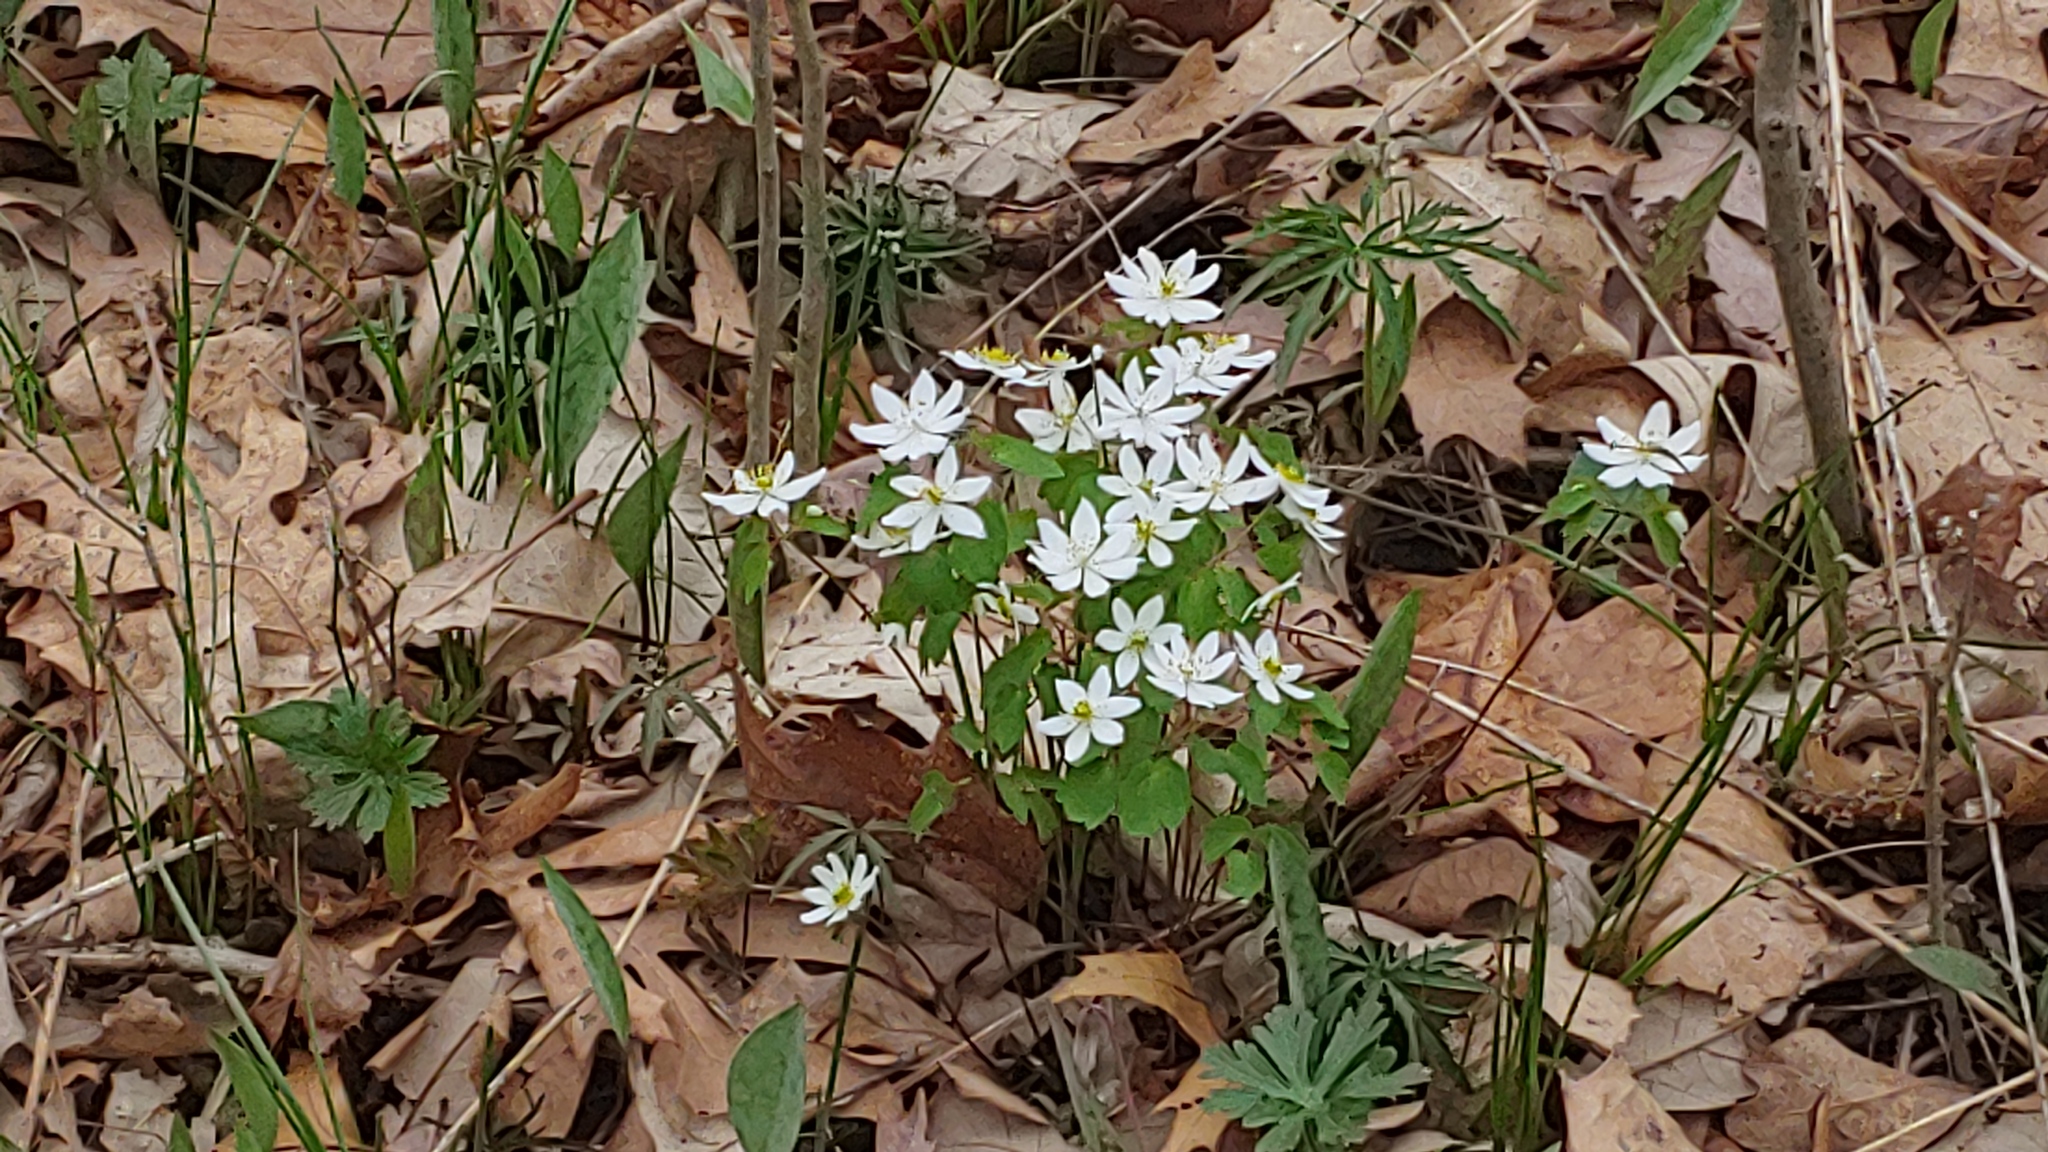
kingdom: Plantae
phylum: Tracheophyta
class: Magnoliopsida
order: Ranunculales
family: Ranunculaceae
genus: Thalictrum
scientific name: Thalictrum thalictroides
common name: Rue-anemone
